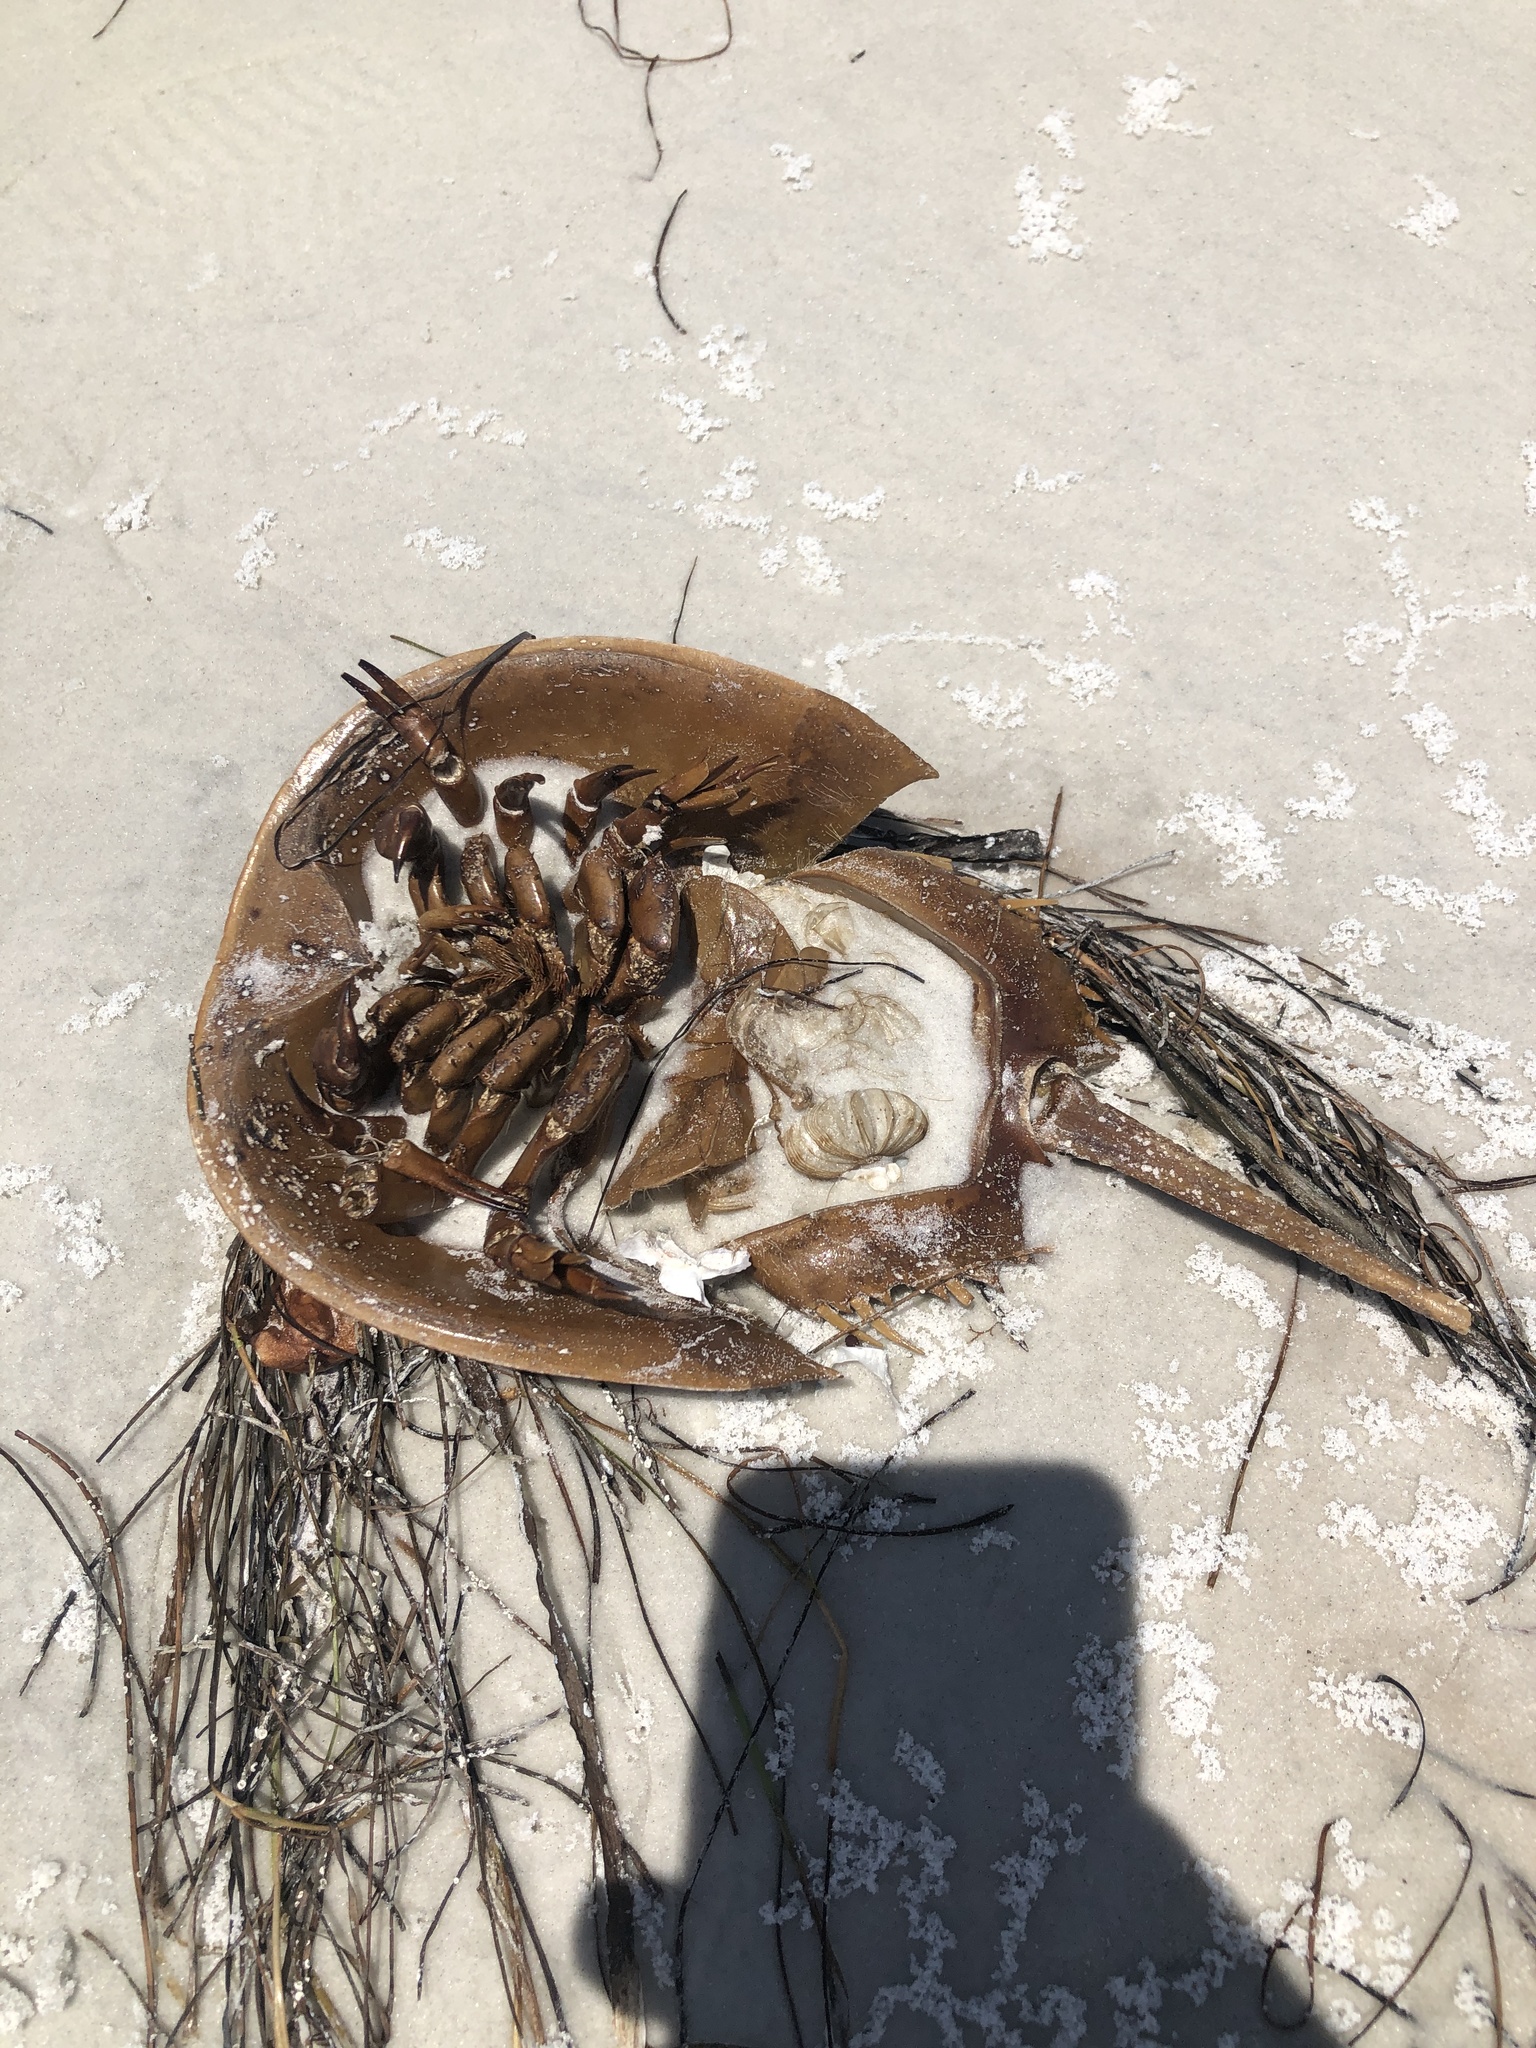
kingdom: Animalia
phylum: Arthropoda
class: Merostomata
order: Xiphosurida
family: Limulidae
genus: Limulus
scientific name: Limulus polyphemus
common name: Horseshoe crab
